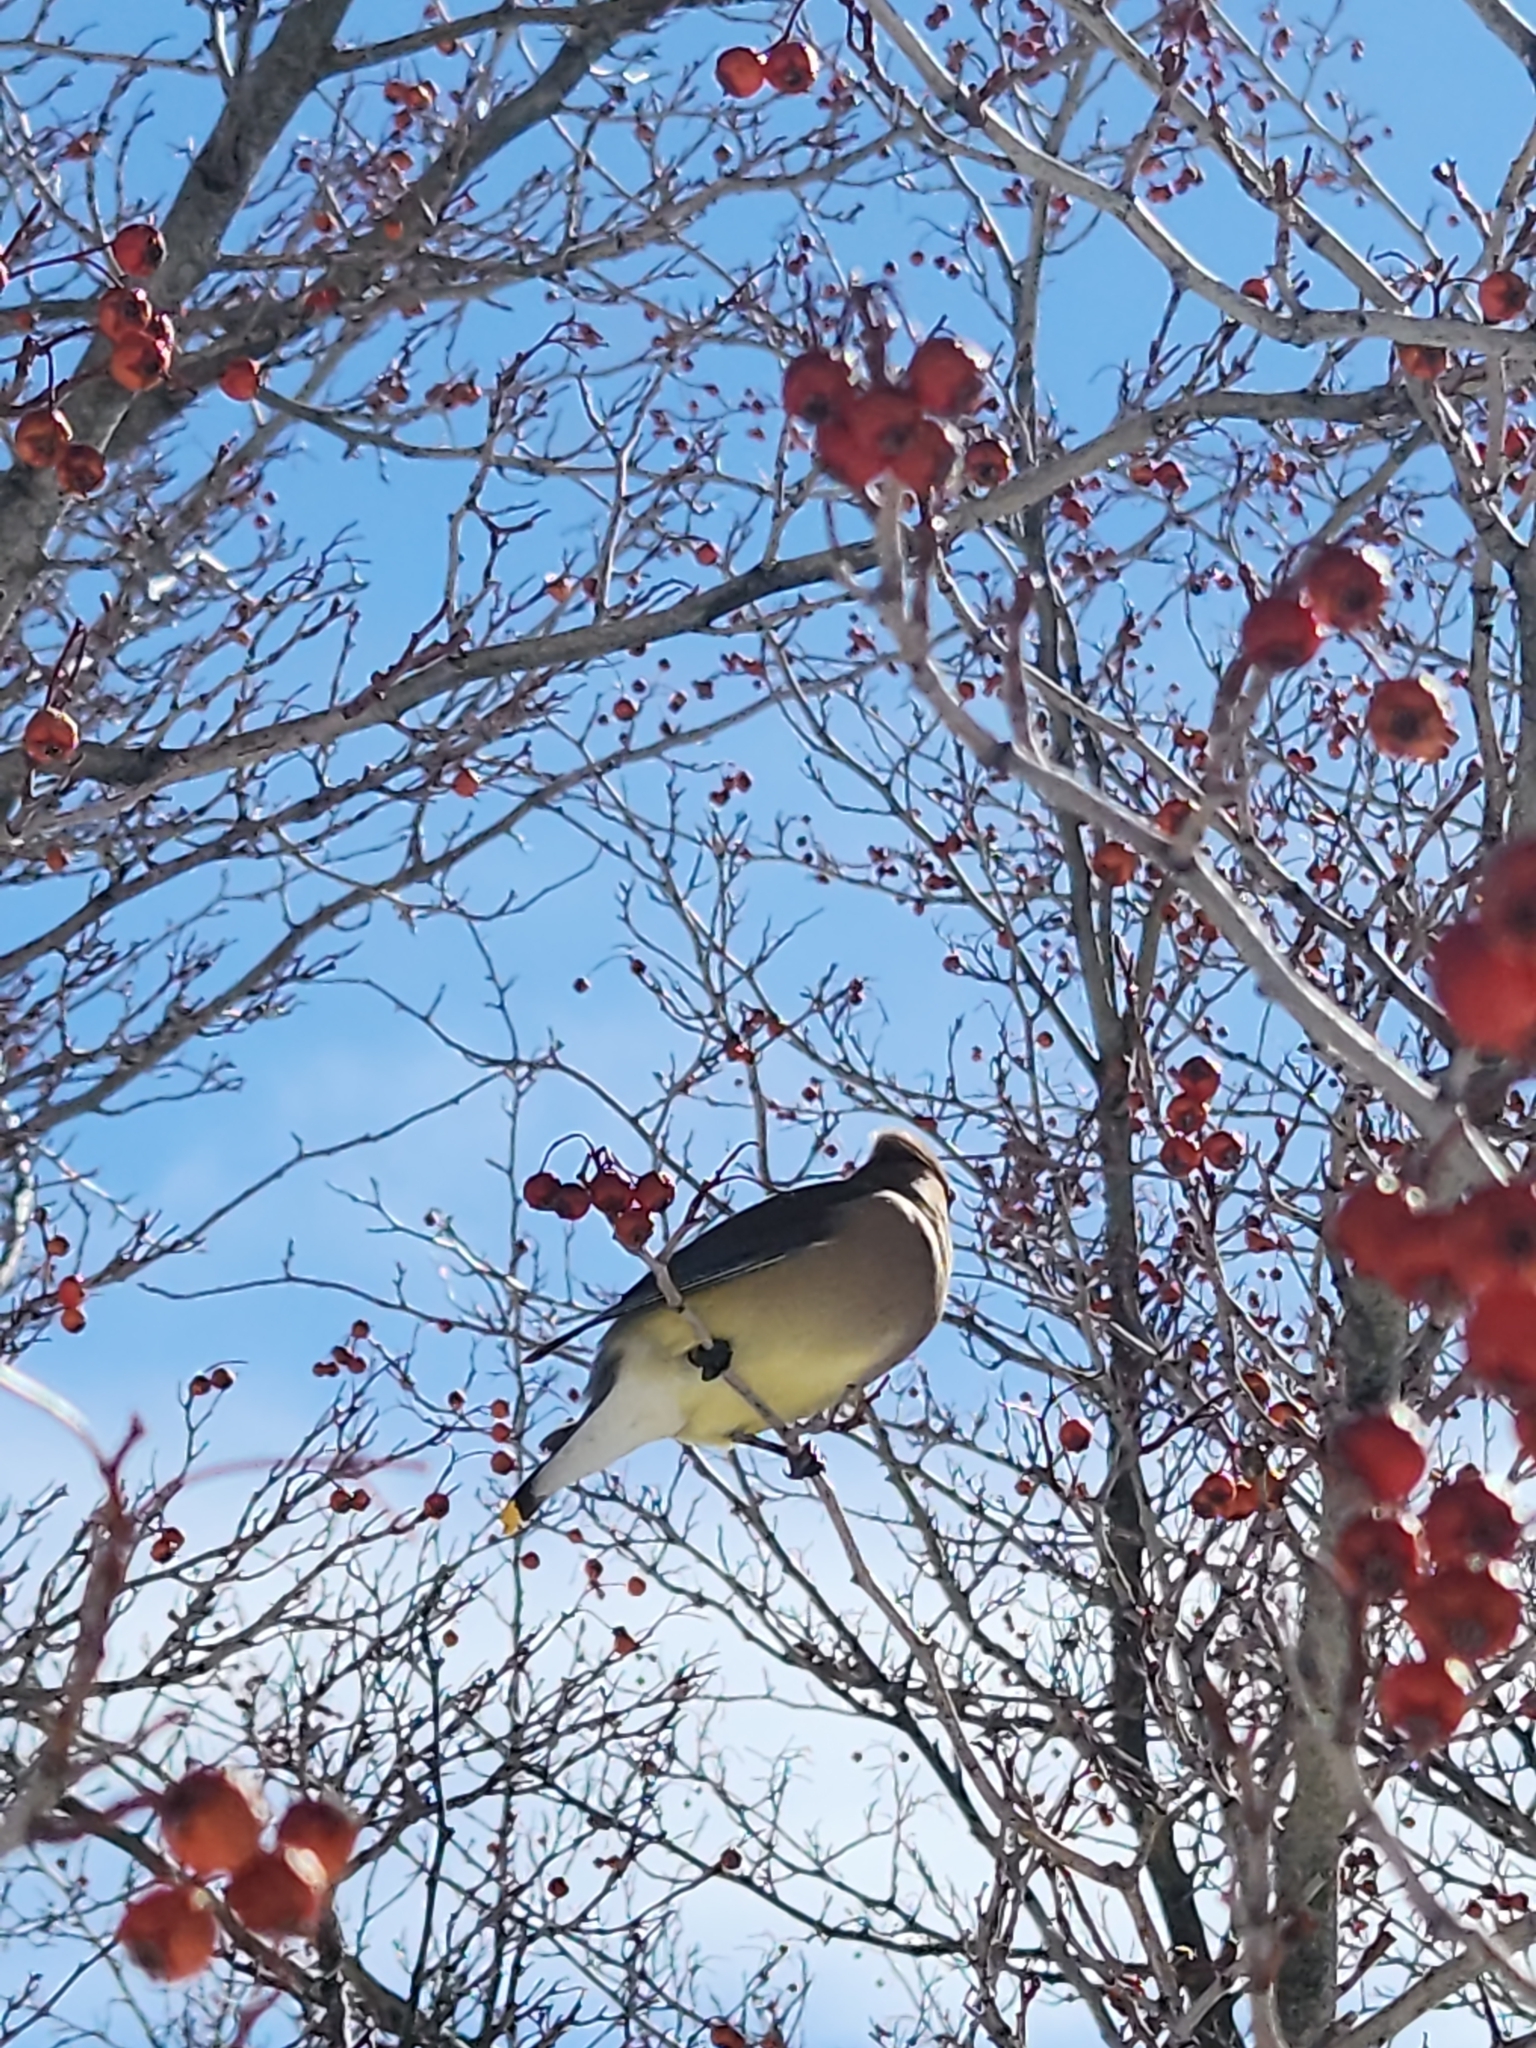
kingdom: Animalia
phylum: Chordata
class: Aves
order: Passeriformes
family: Bombycillidae
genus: Bombycilla
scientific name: Bombycilla cedrorum
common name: Cedar waxwing
